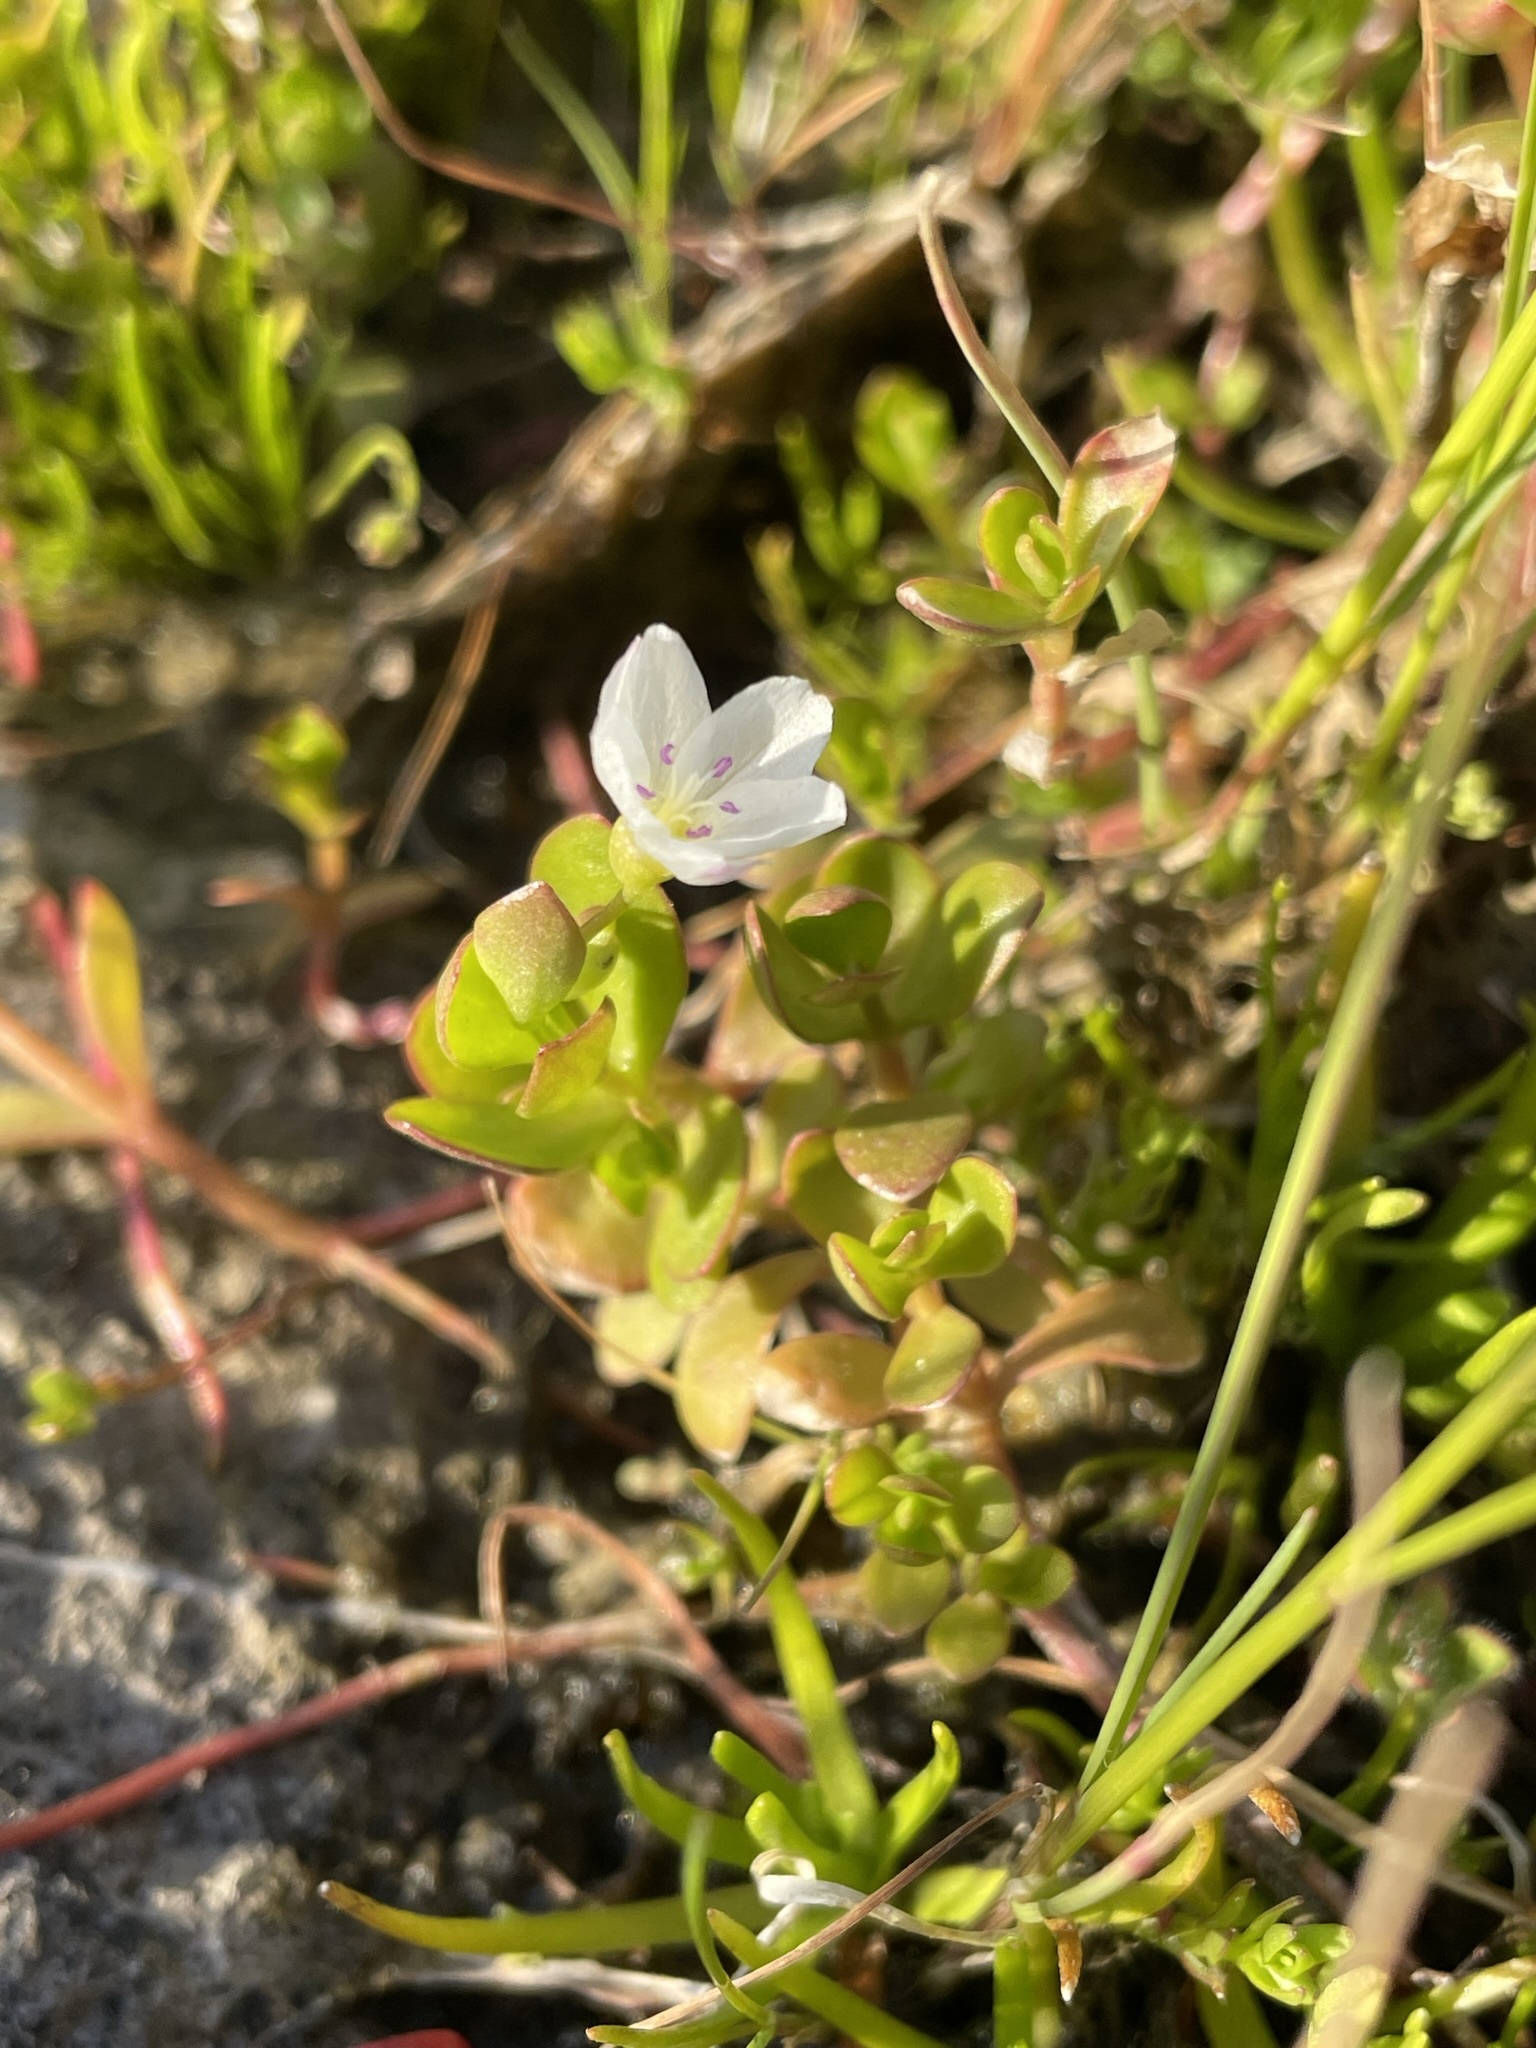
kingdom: Plantae
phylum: Tracheophyta
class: Magnoliopsida
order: Caryophyllales
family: Montiaceae
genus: Montia
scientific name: Montia chamissoi
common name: Chamisso's candyflower
